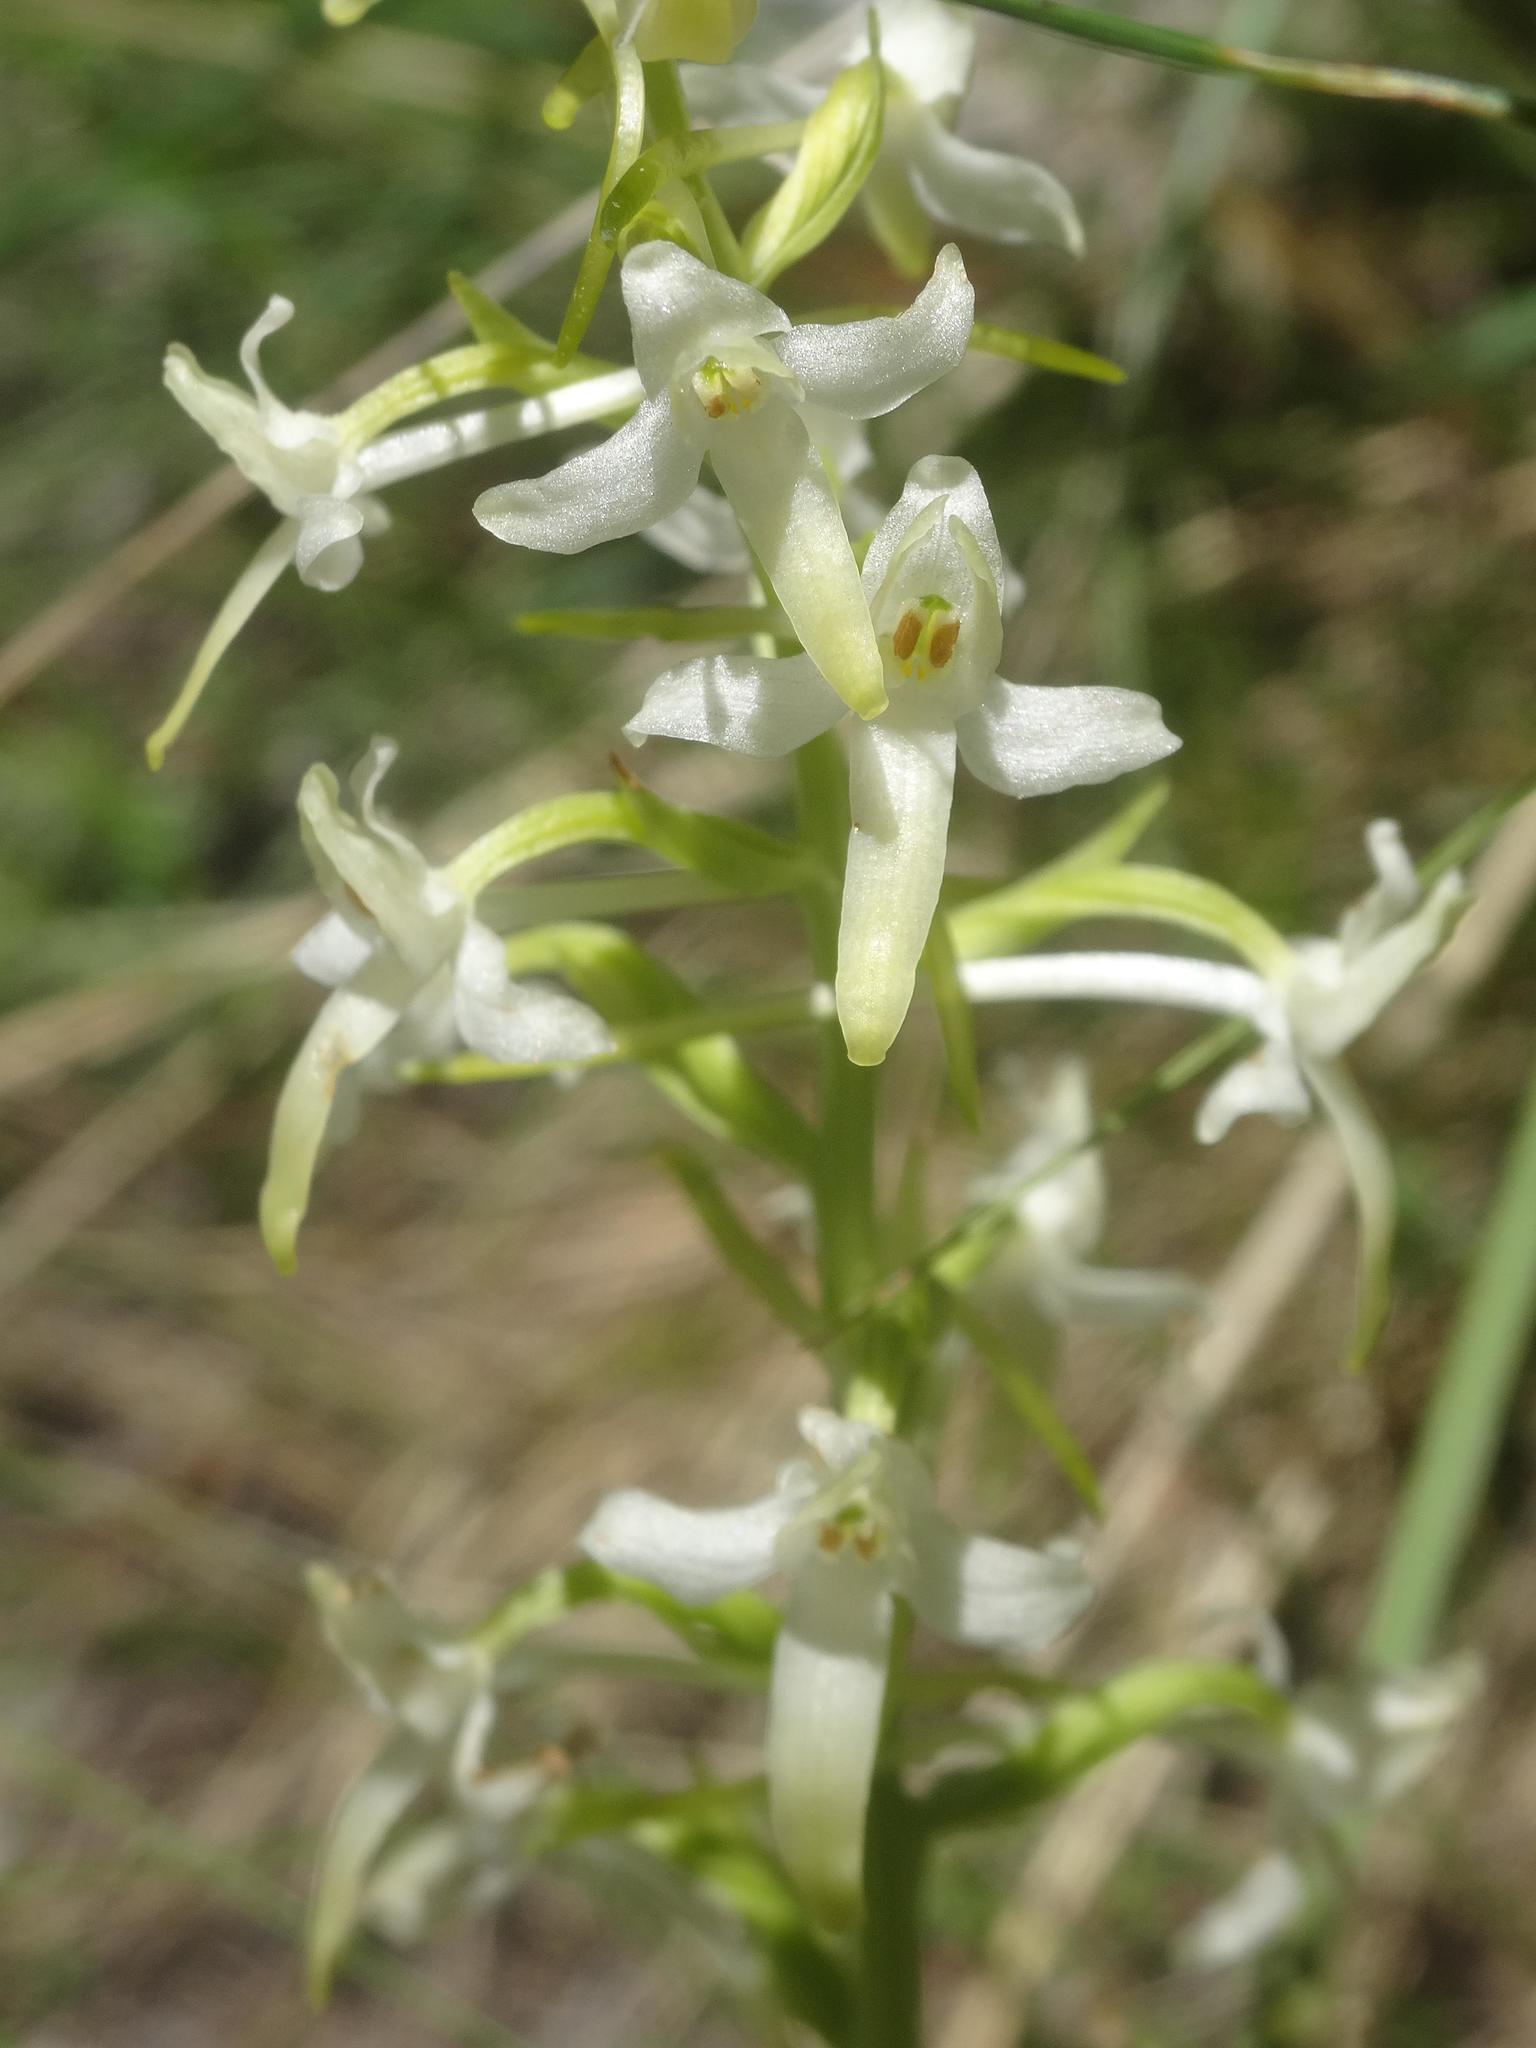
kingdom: Plantae
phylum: Tracheophyta
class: Liliopsida
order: Asparagales
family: Orchidaceae
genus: Platanthera
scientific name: Platanthera bifolia
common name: Lesser butterfly-orchid
